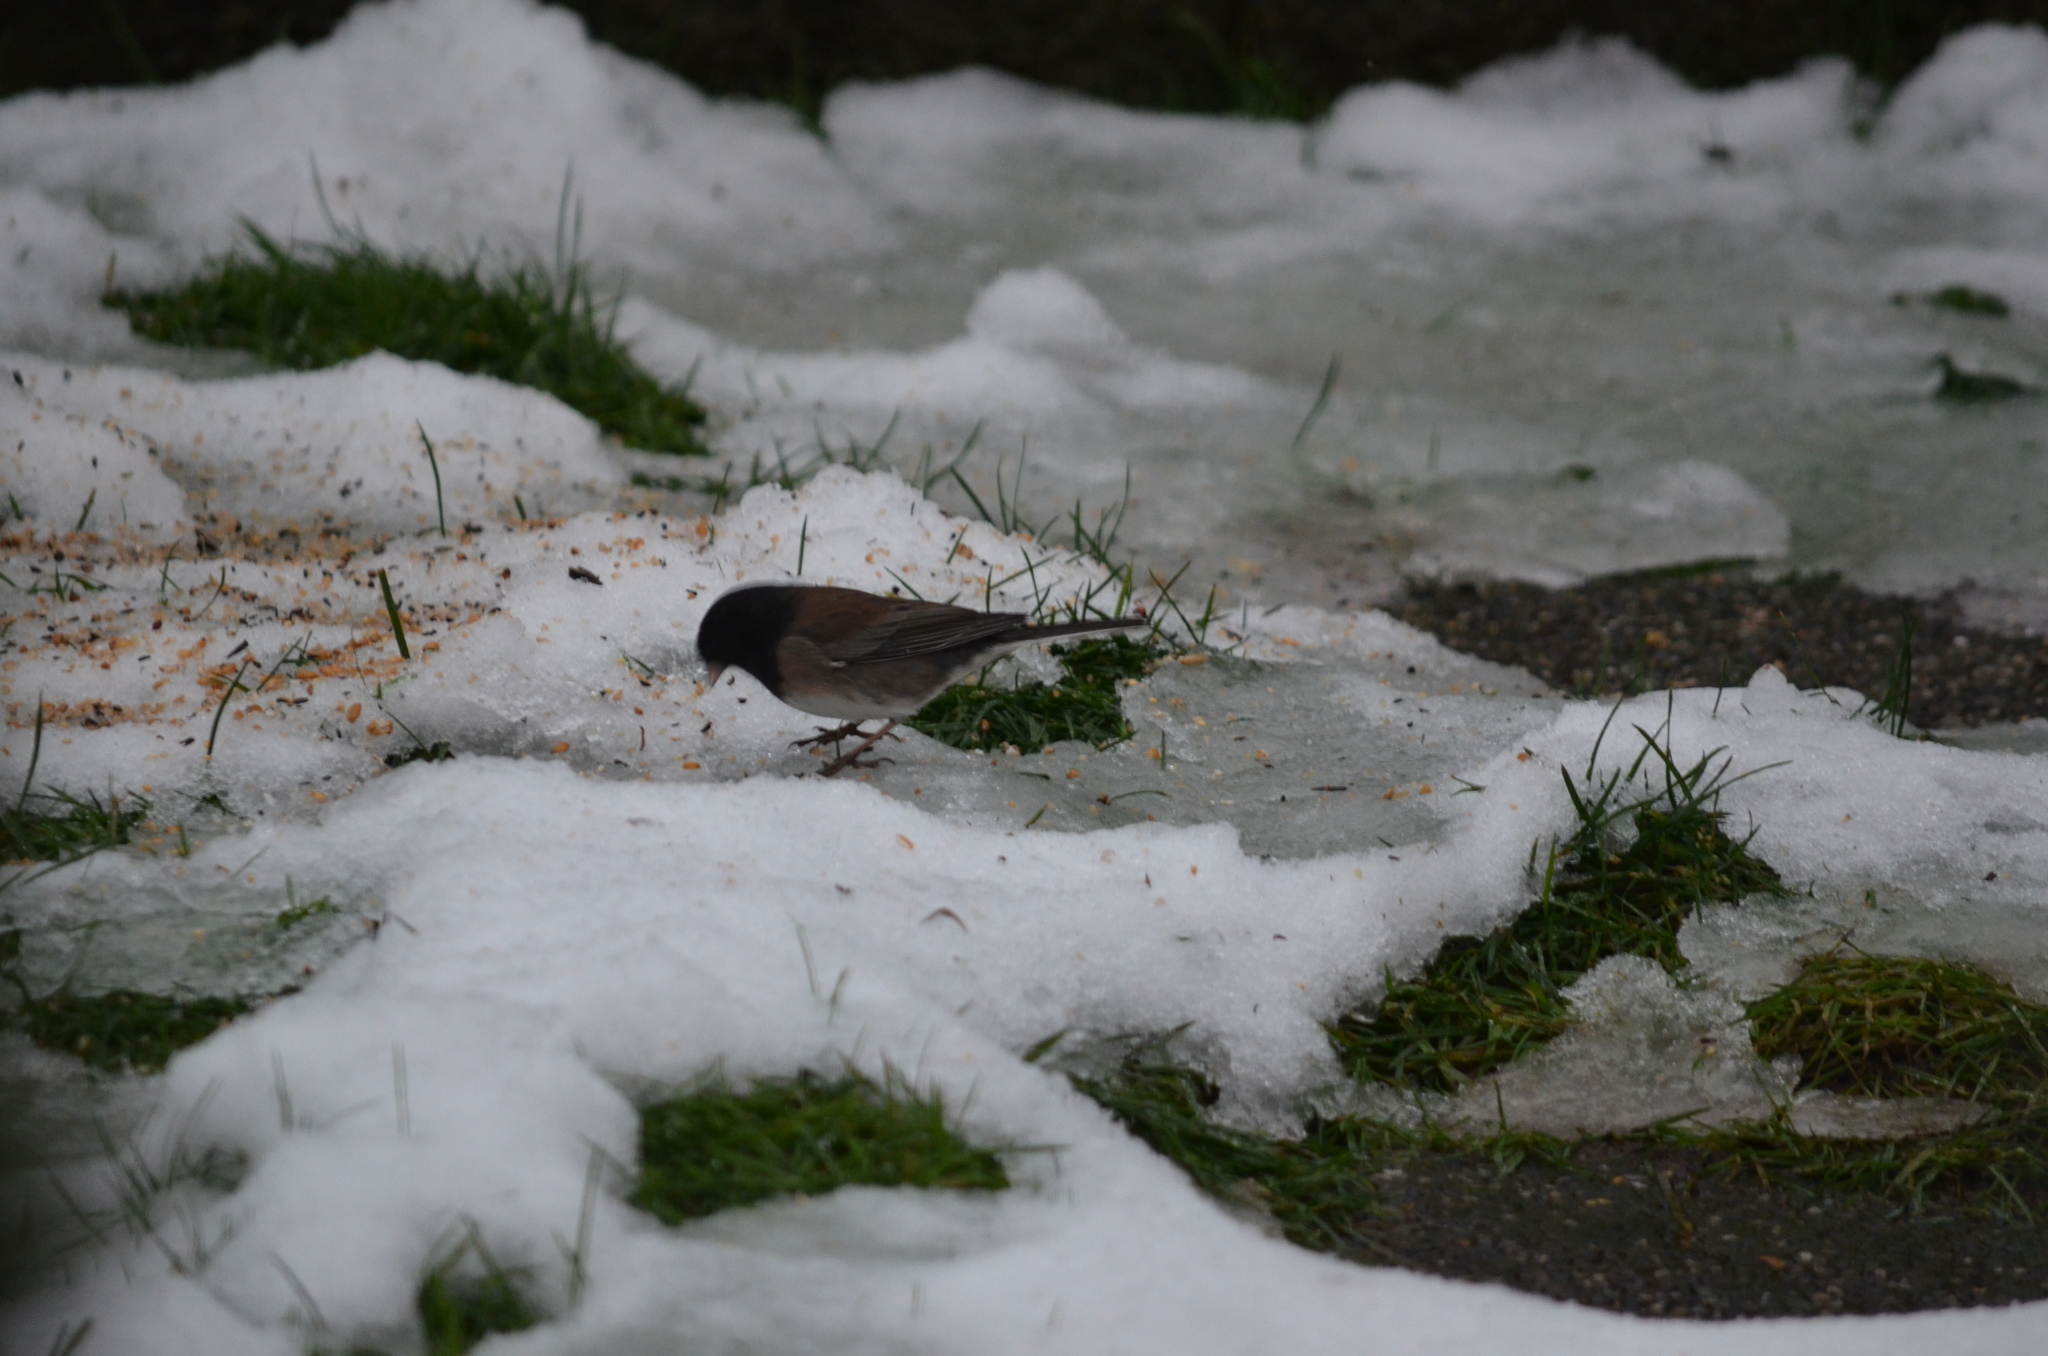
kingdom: Animalia
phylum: Chordata
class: Aves
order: Passeriformes
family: Passerellidae
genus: Junco
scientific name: Junco hyemalis
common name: Dark-eyed junco
